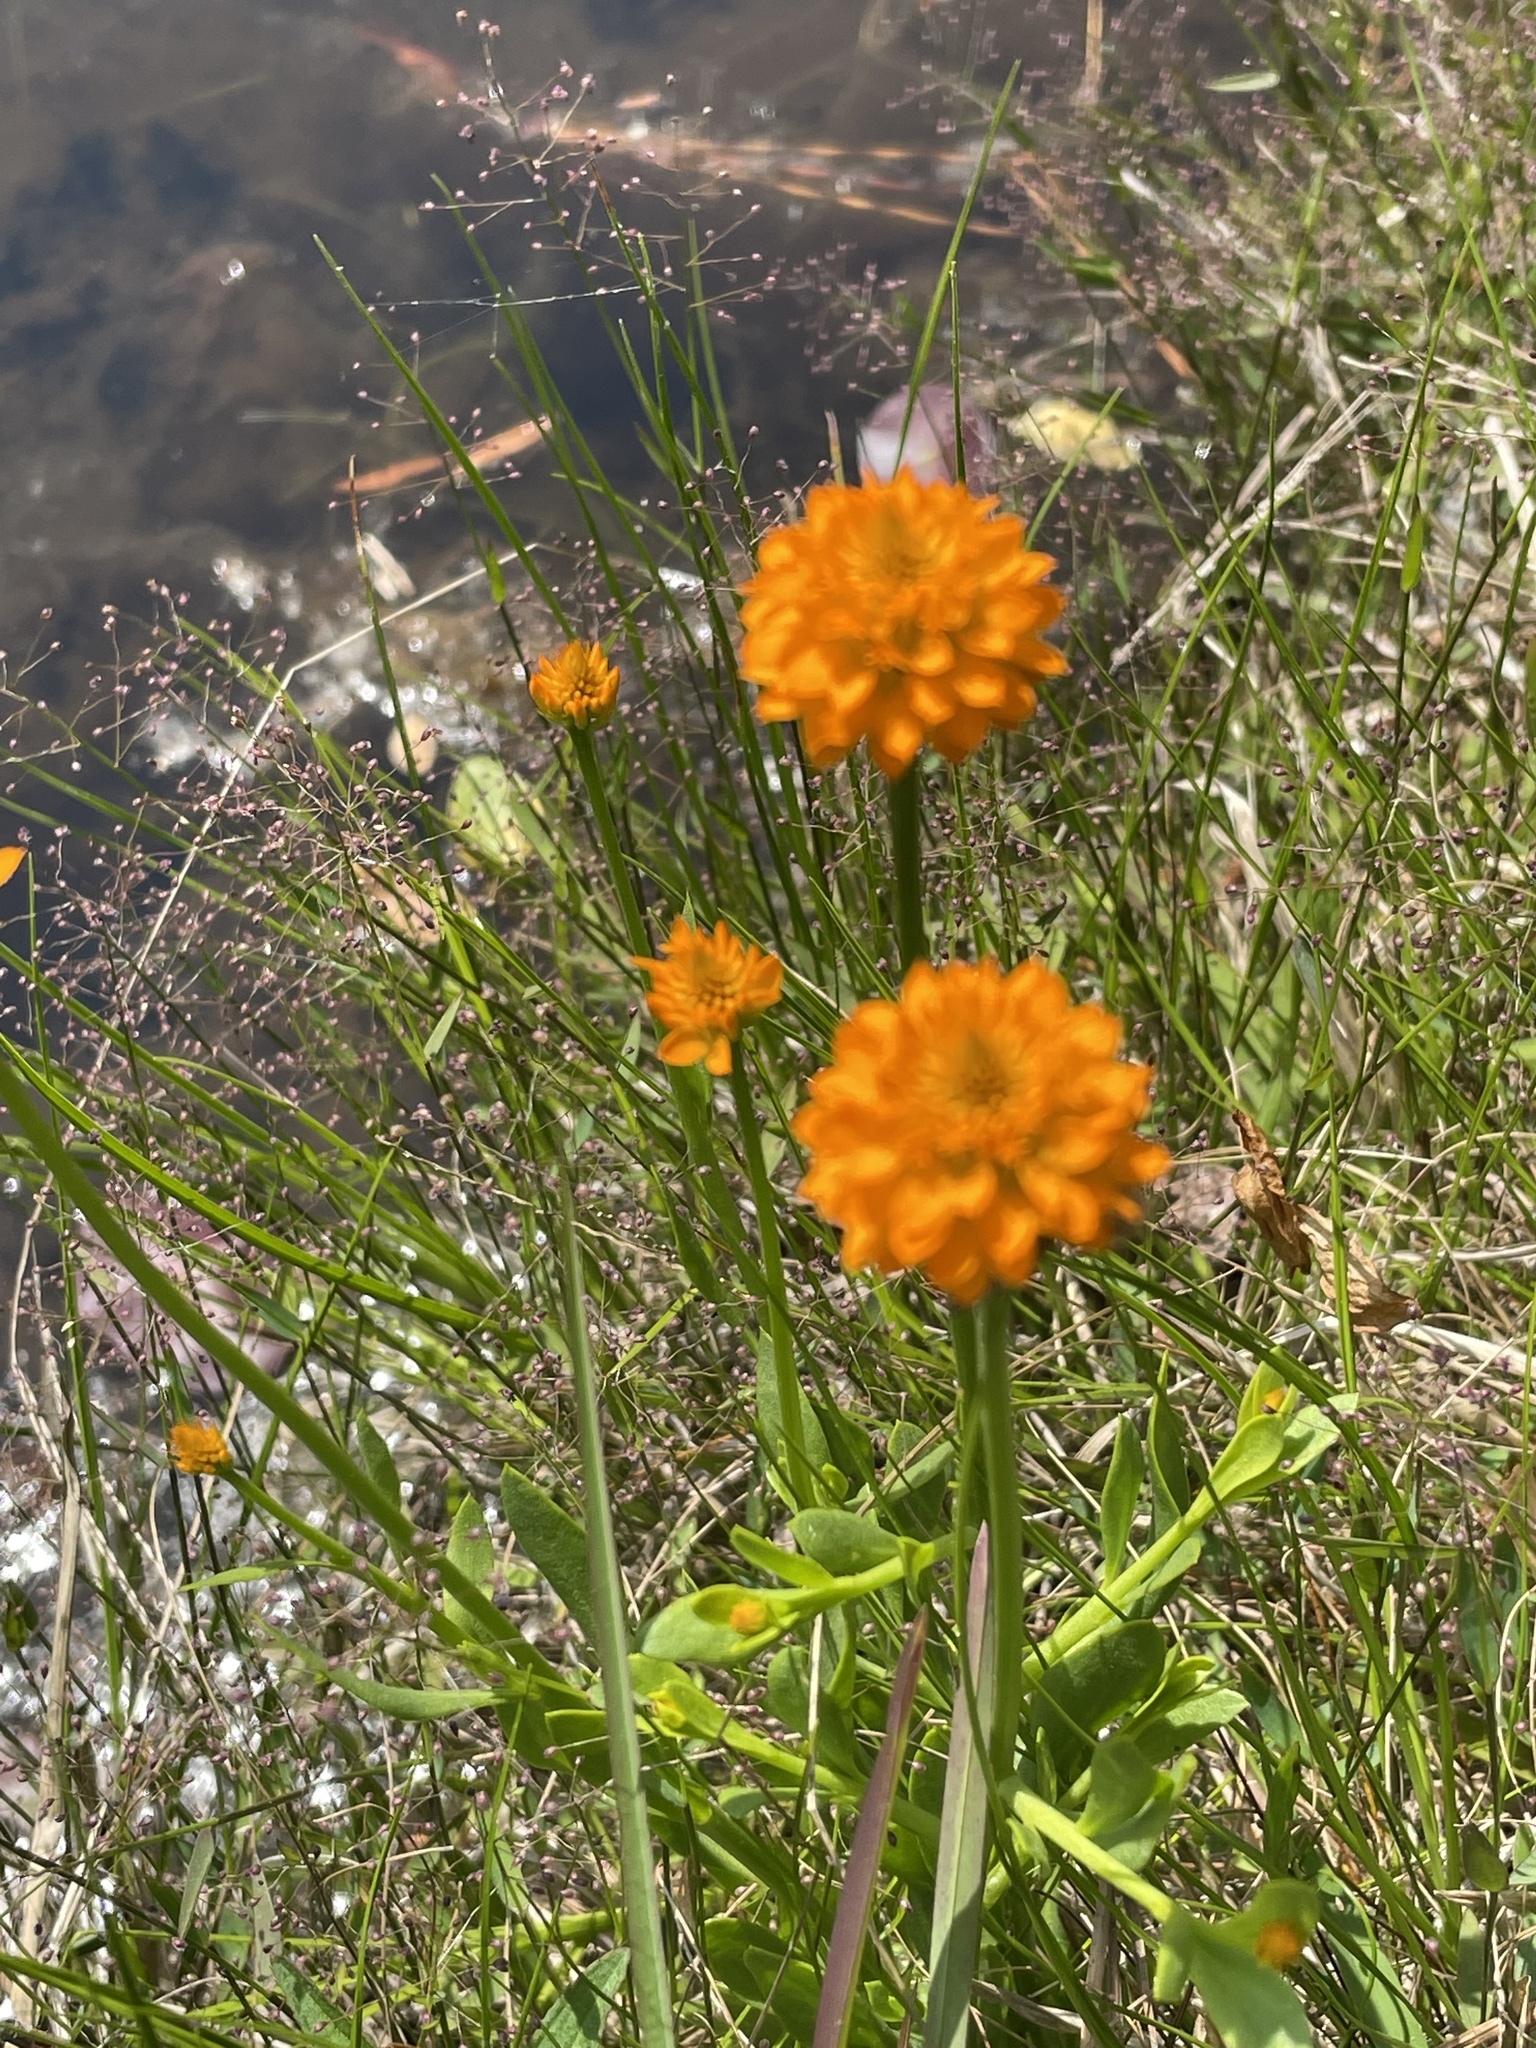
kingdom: Plantae
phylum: Tracheophyta
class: Magnoliopsida
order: Fabales
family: Polygalaceae
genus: Polygala
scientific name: Polygala lutea
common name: Orange milkwort
